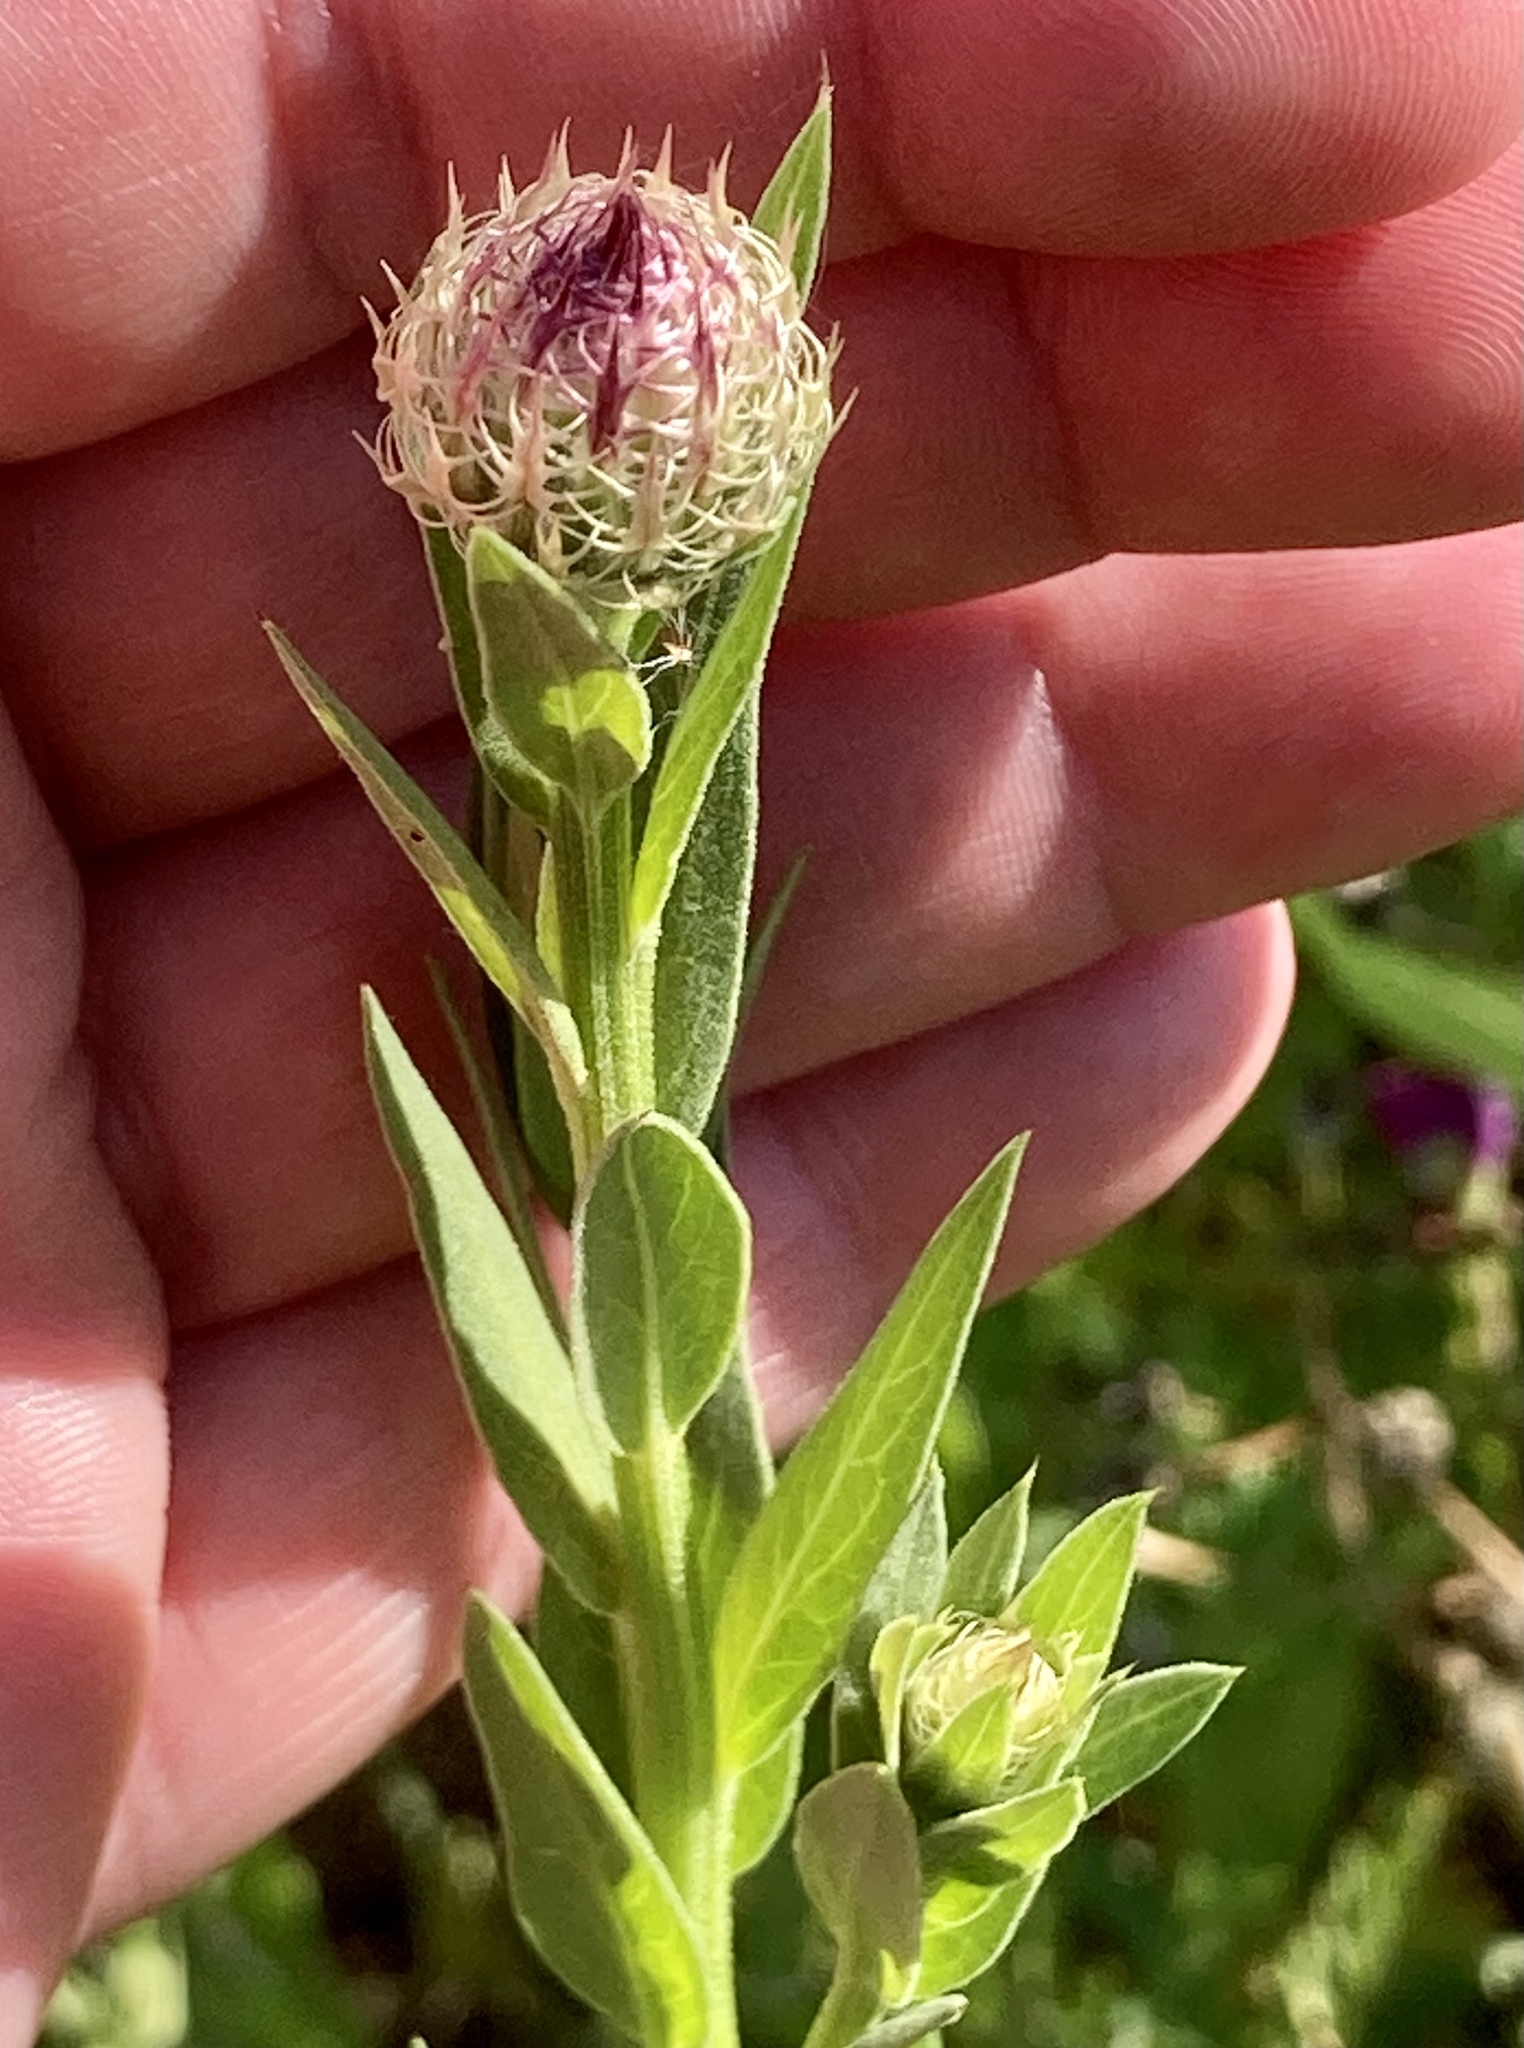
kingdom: Plantae
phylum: Tracheophyta
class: Magnoliopsida
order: Asterales
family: Asteraceae
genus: Plectocephalus
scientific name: Plectocephalus americanus
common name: American basket-flower
